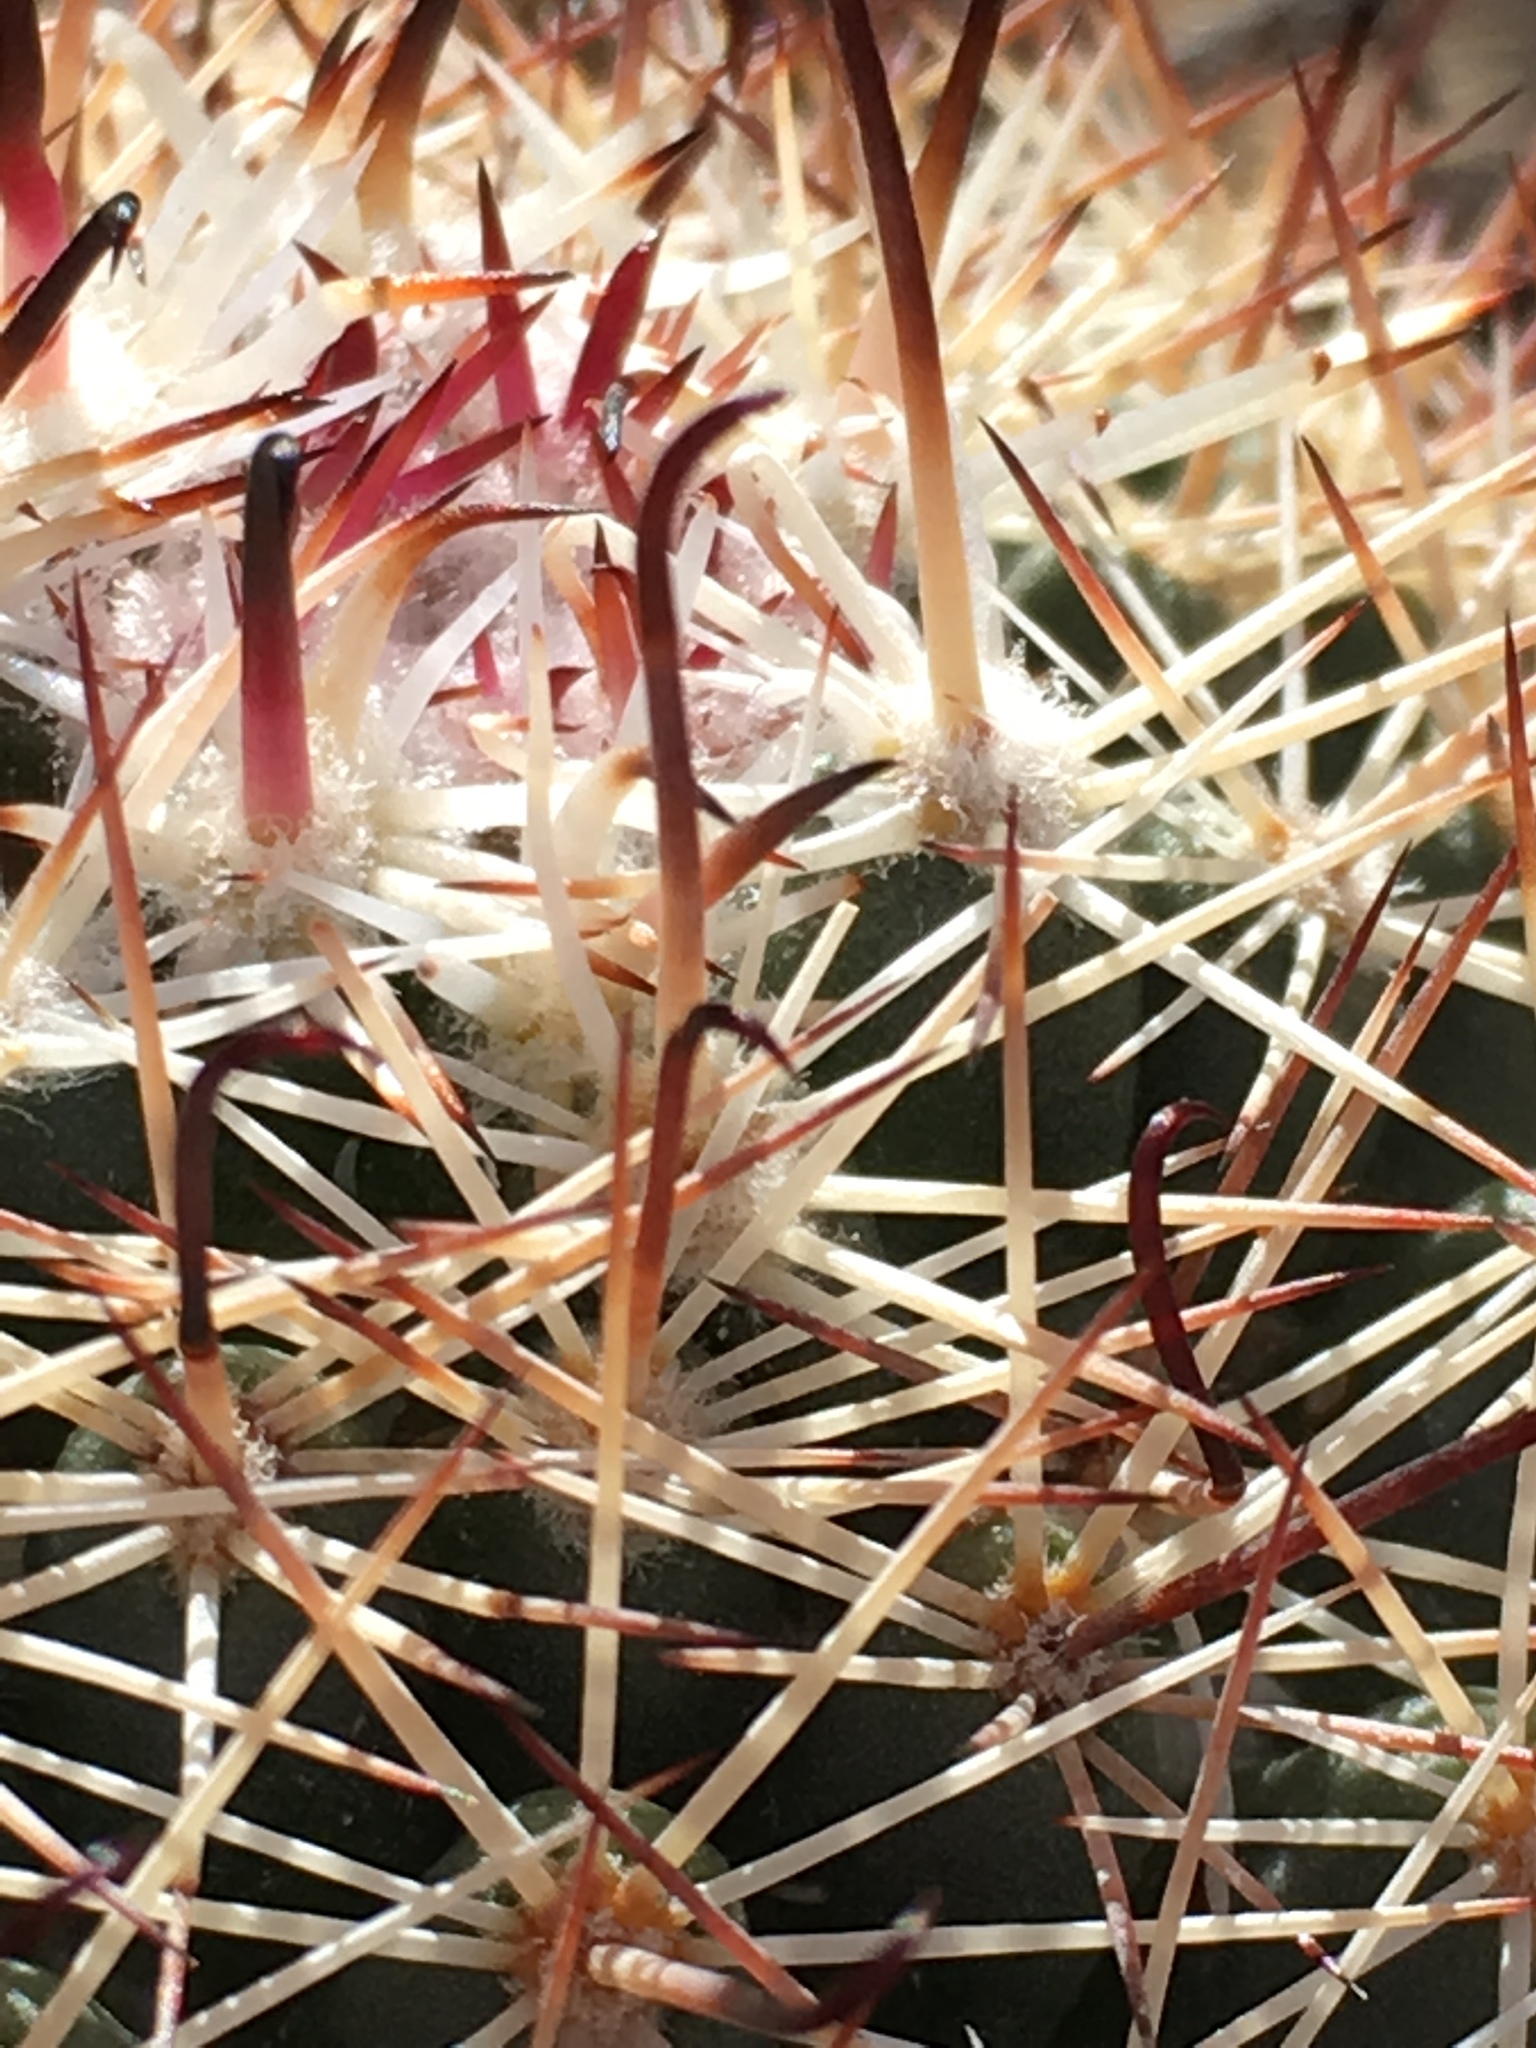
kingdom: Plantae
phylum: Tracheophyta
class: Magnoliopsida
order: Caryophyllales
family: Cactaceae
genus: Cochemiea
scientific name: Cochemiea dioica
